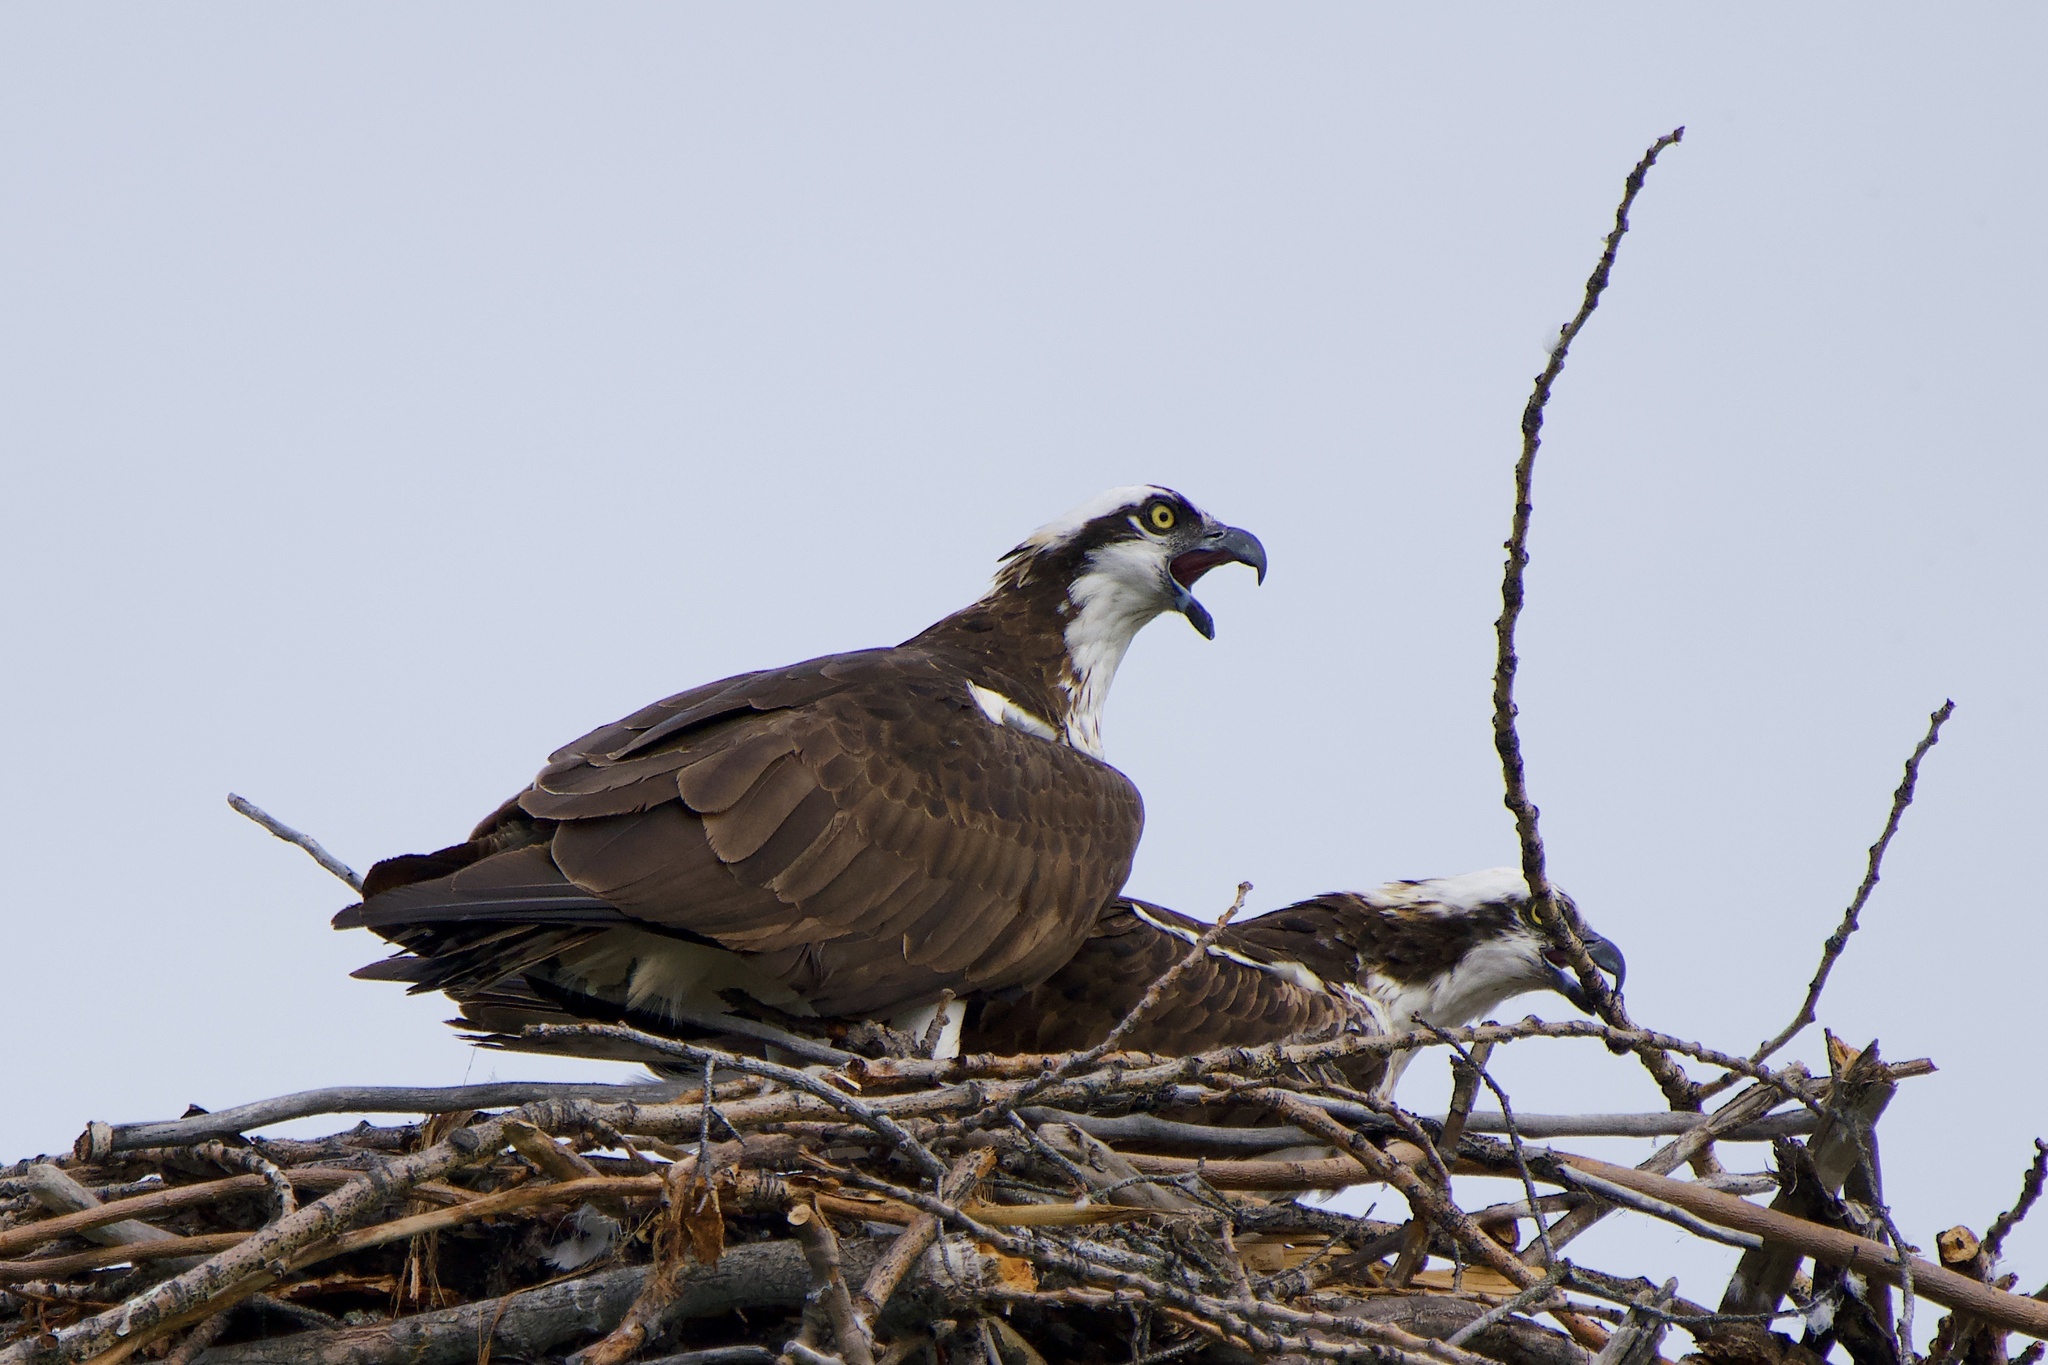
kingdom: Animalia
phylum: Chordata
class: Aves
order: Accipitriformes
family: Pandionidae
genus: Pandion
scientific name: Pandion haliaetus
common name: Osprey
